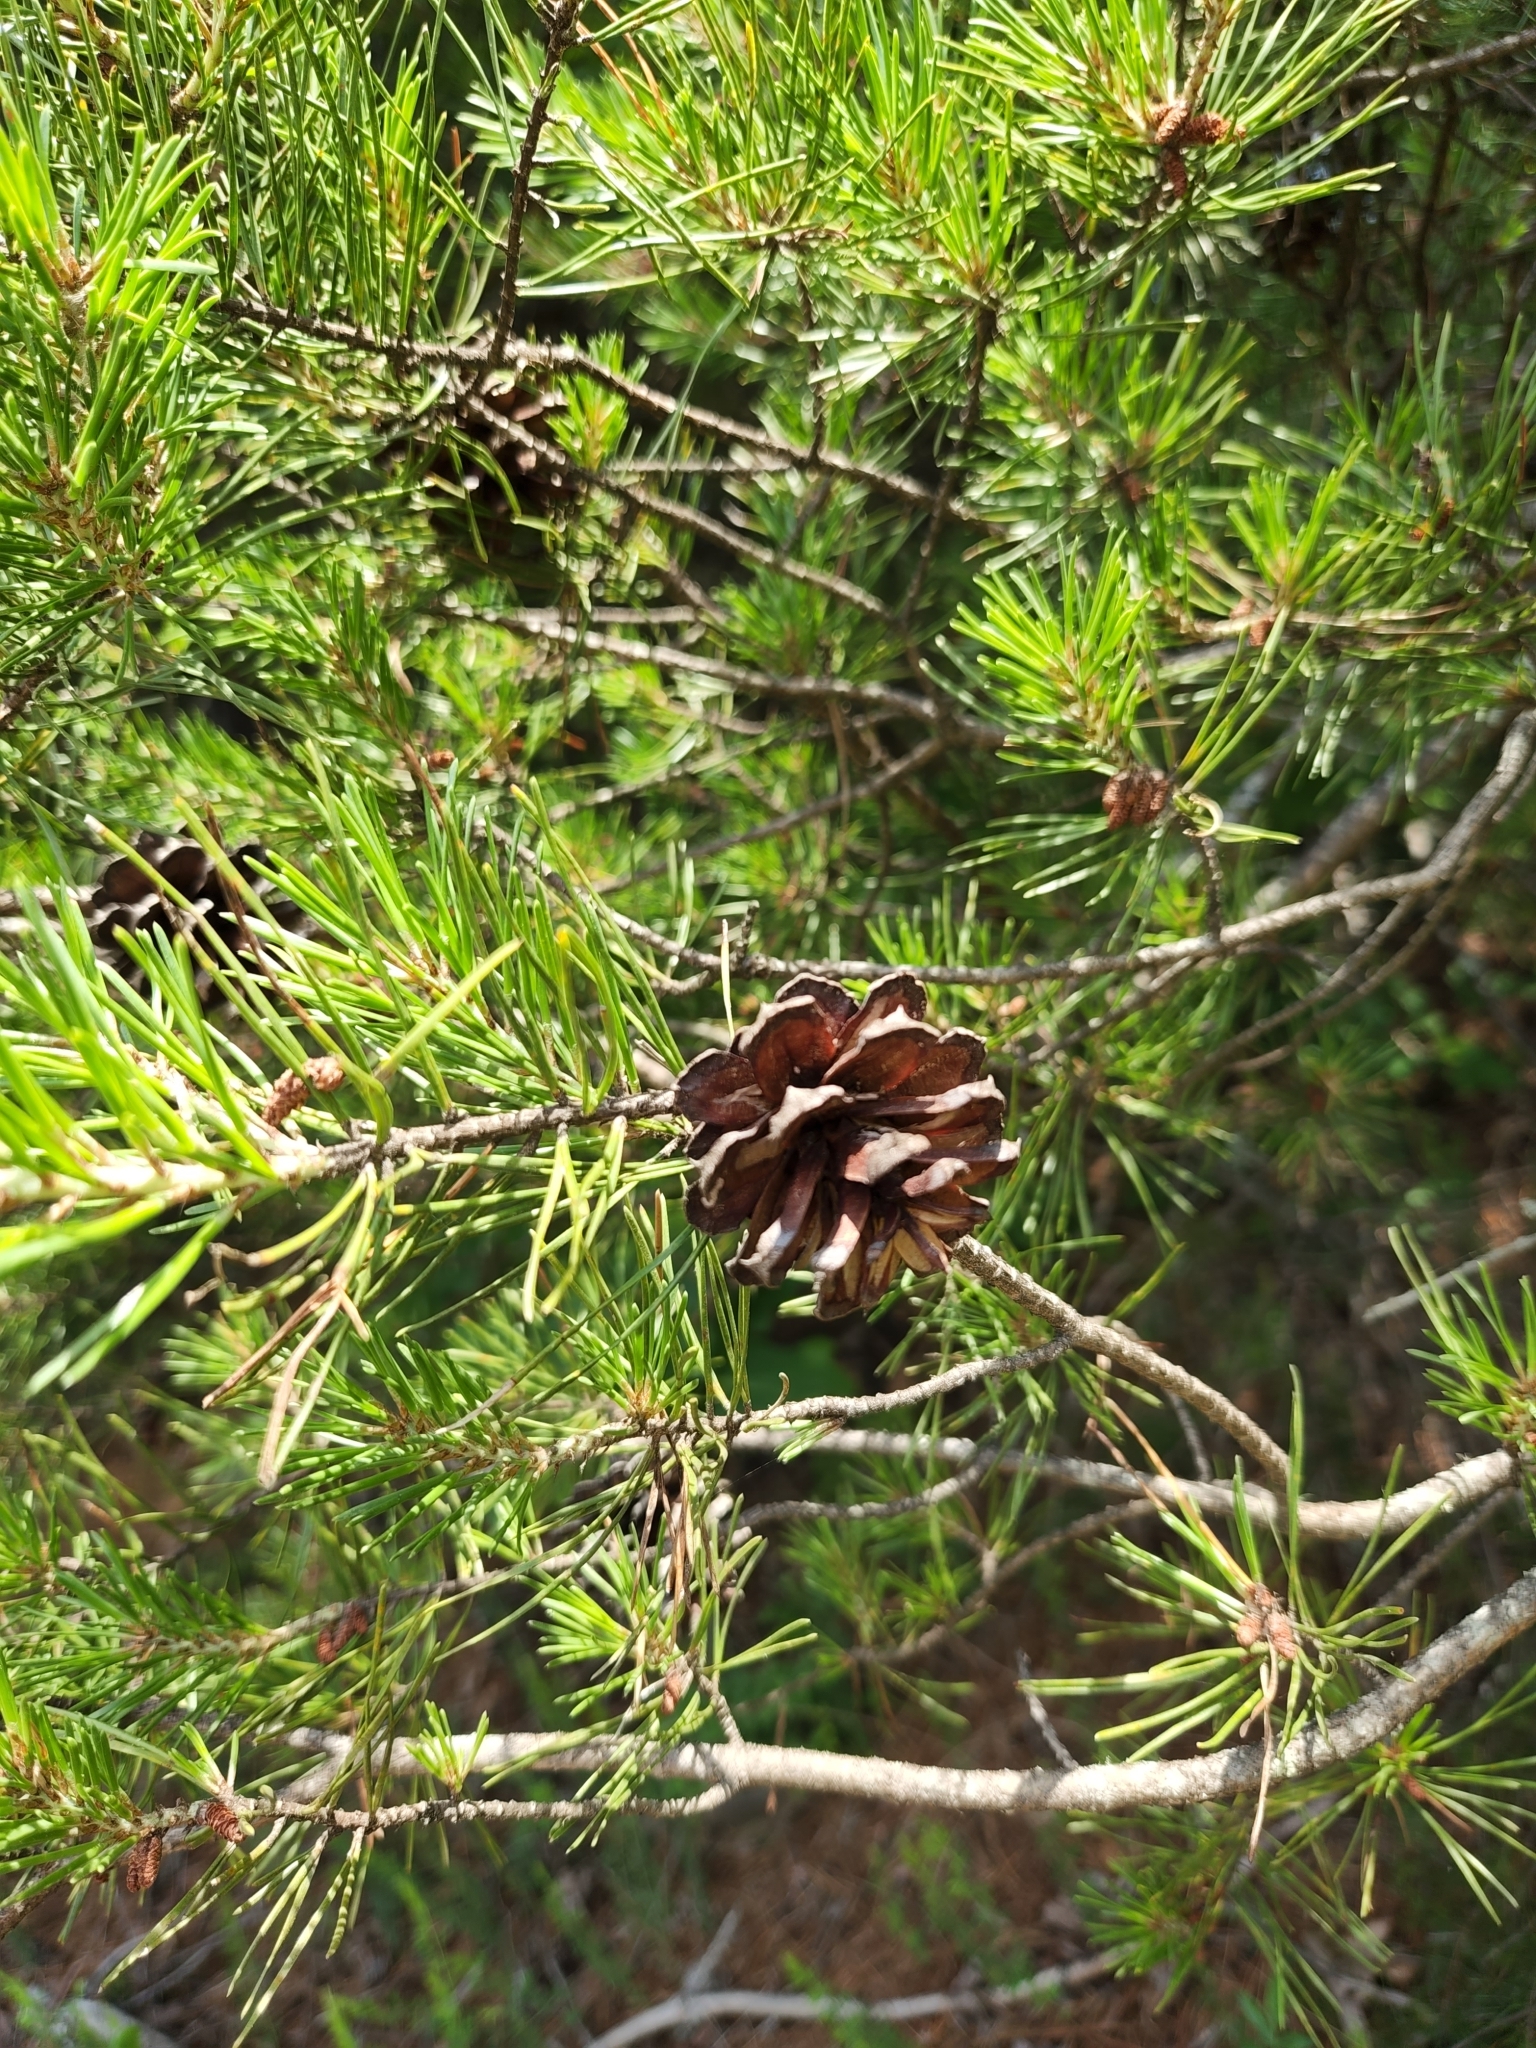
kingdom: Plantae
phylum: Tracheophyta
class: Pinopsida
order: Pinales
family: Pinaceae
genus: Pinus
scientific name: Pinus virginiana
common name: Scrub pine
